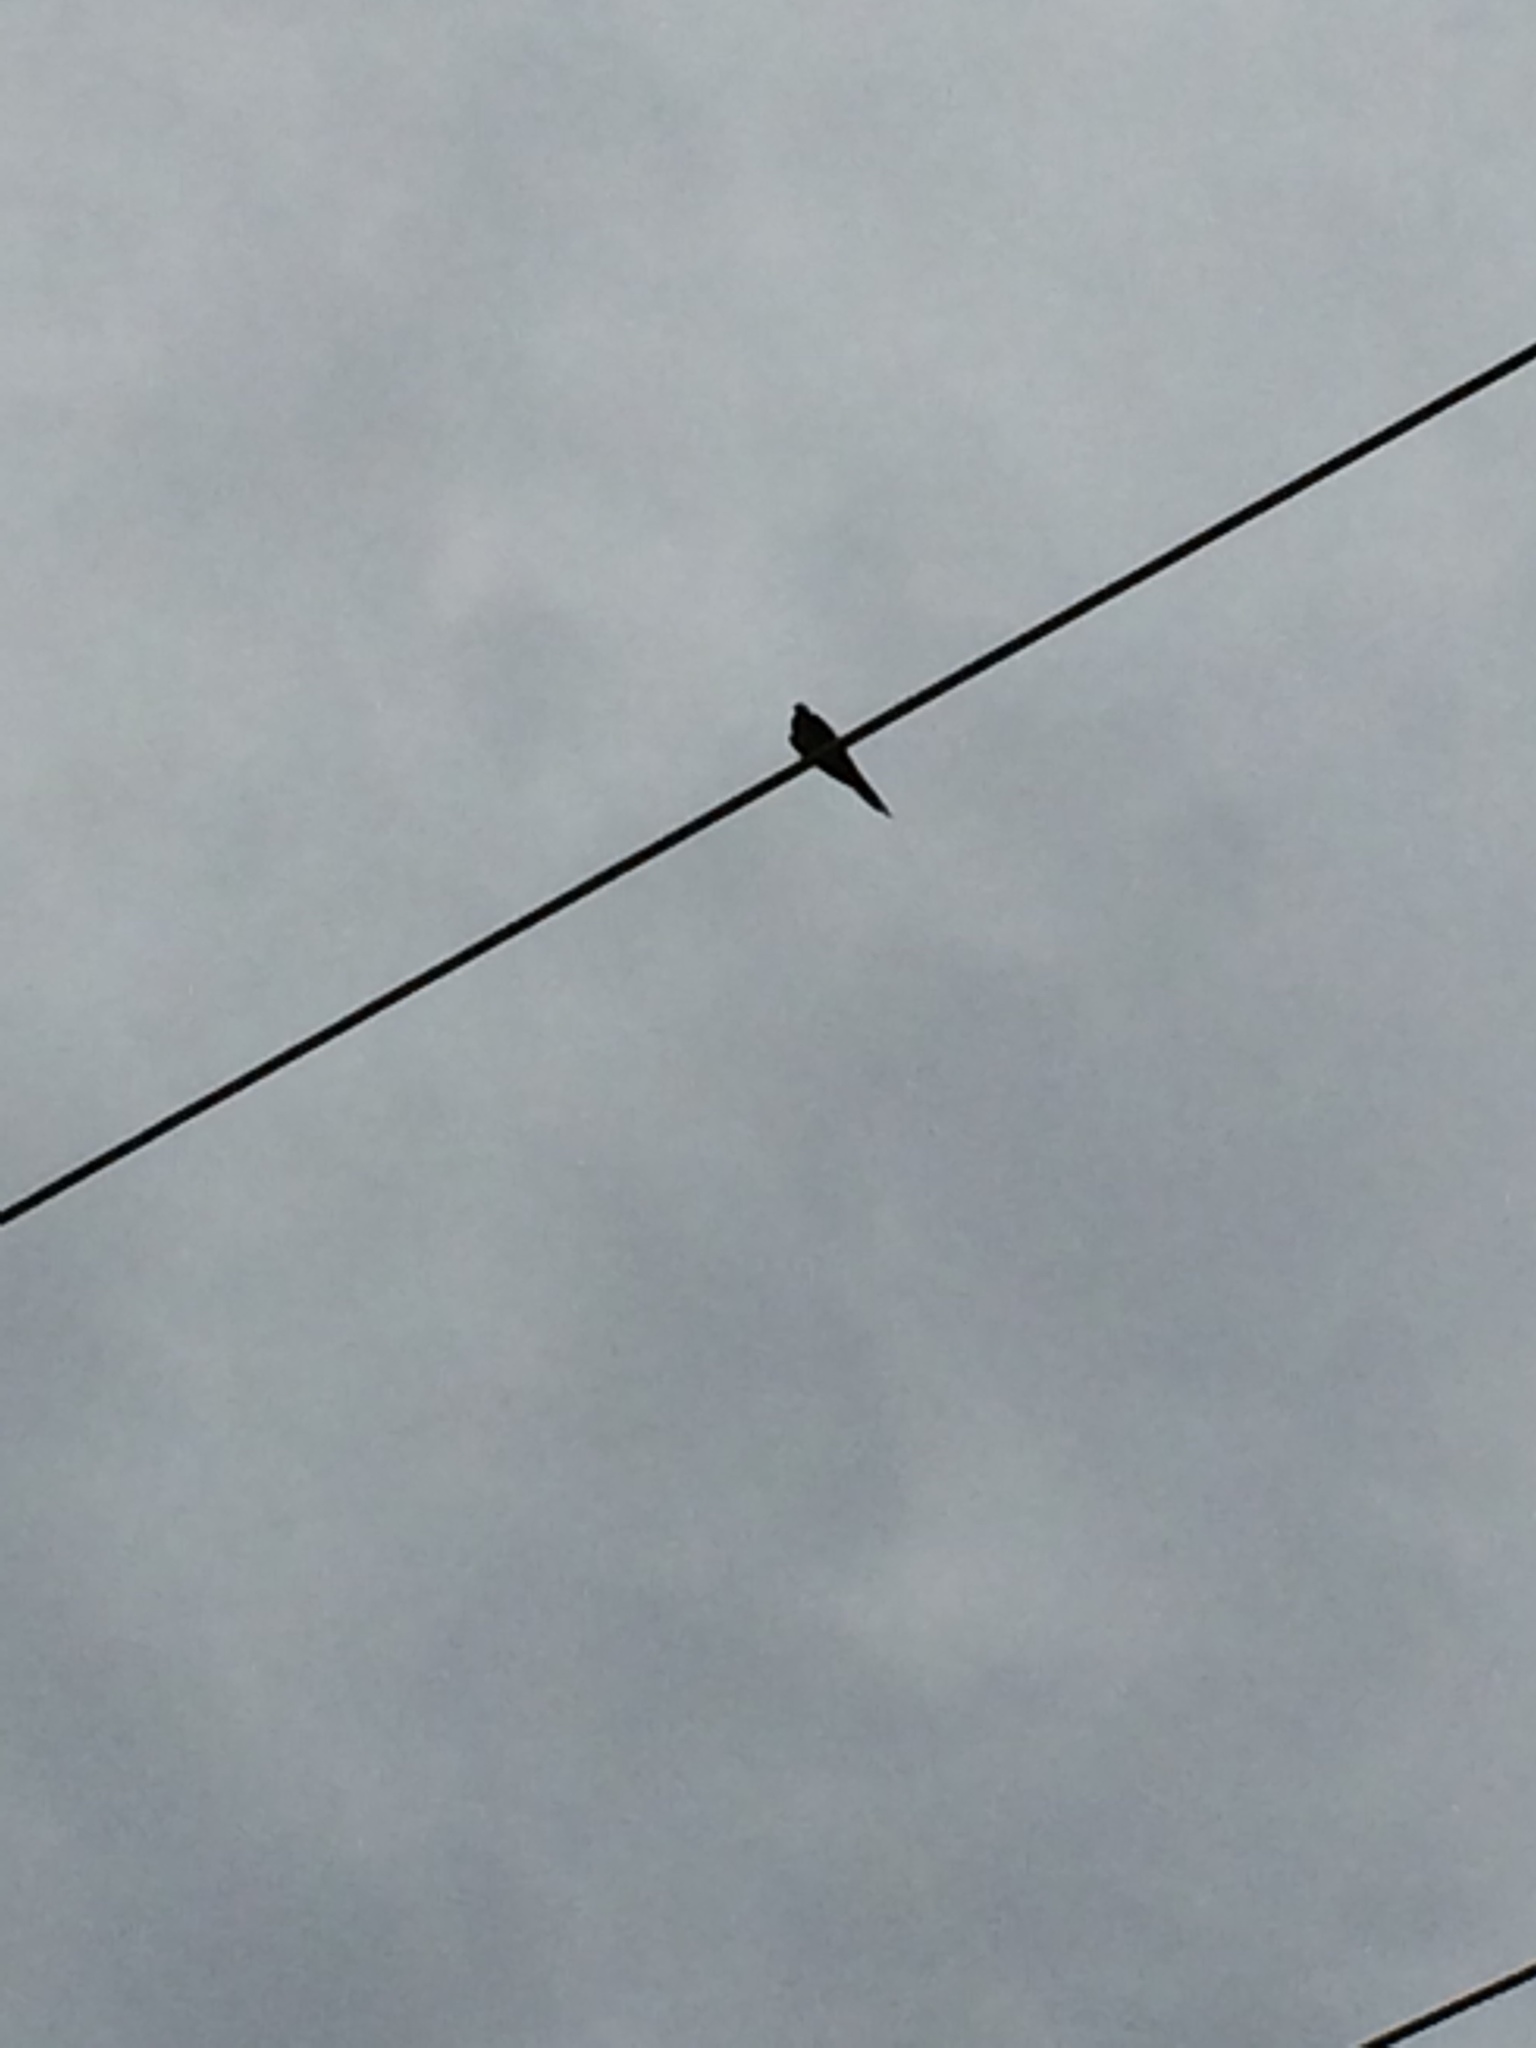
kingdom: Animalia
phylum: Chordata
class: Aves
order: Columbiformes
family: Columbidae
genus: Zenaida
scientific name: Zenaida macroura
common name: Mourning dove
